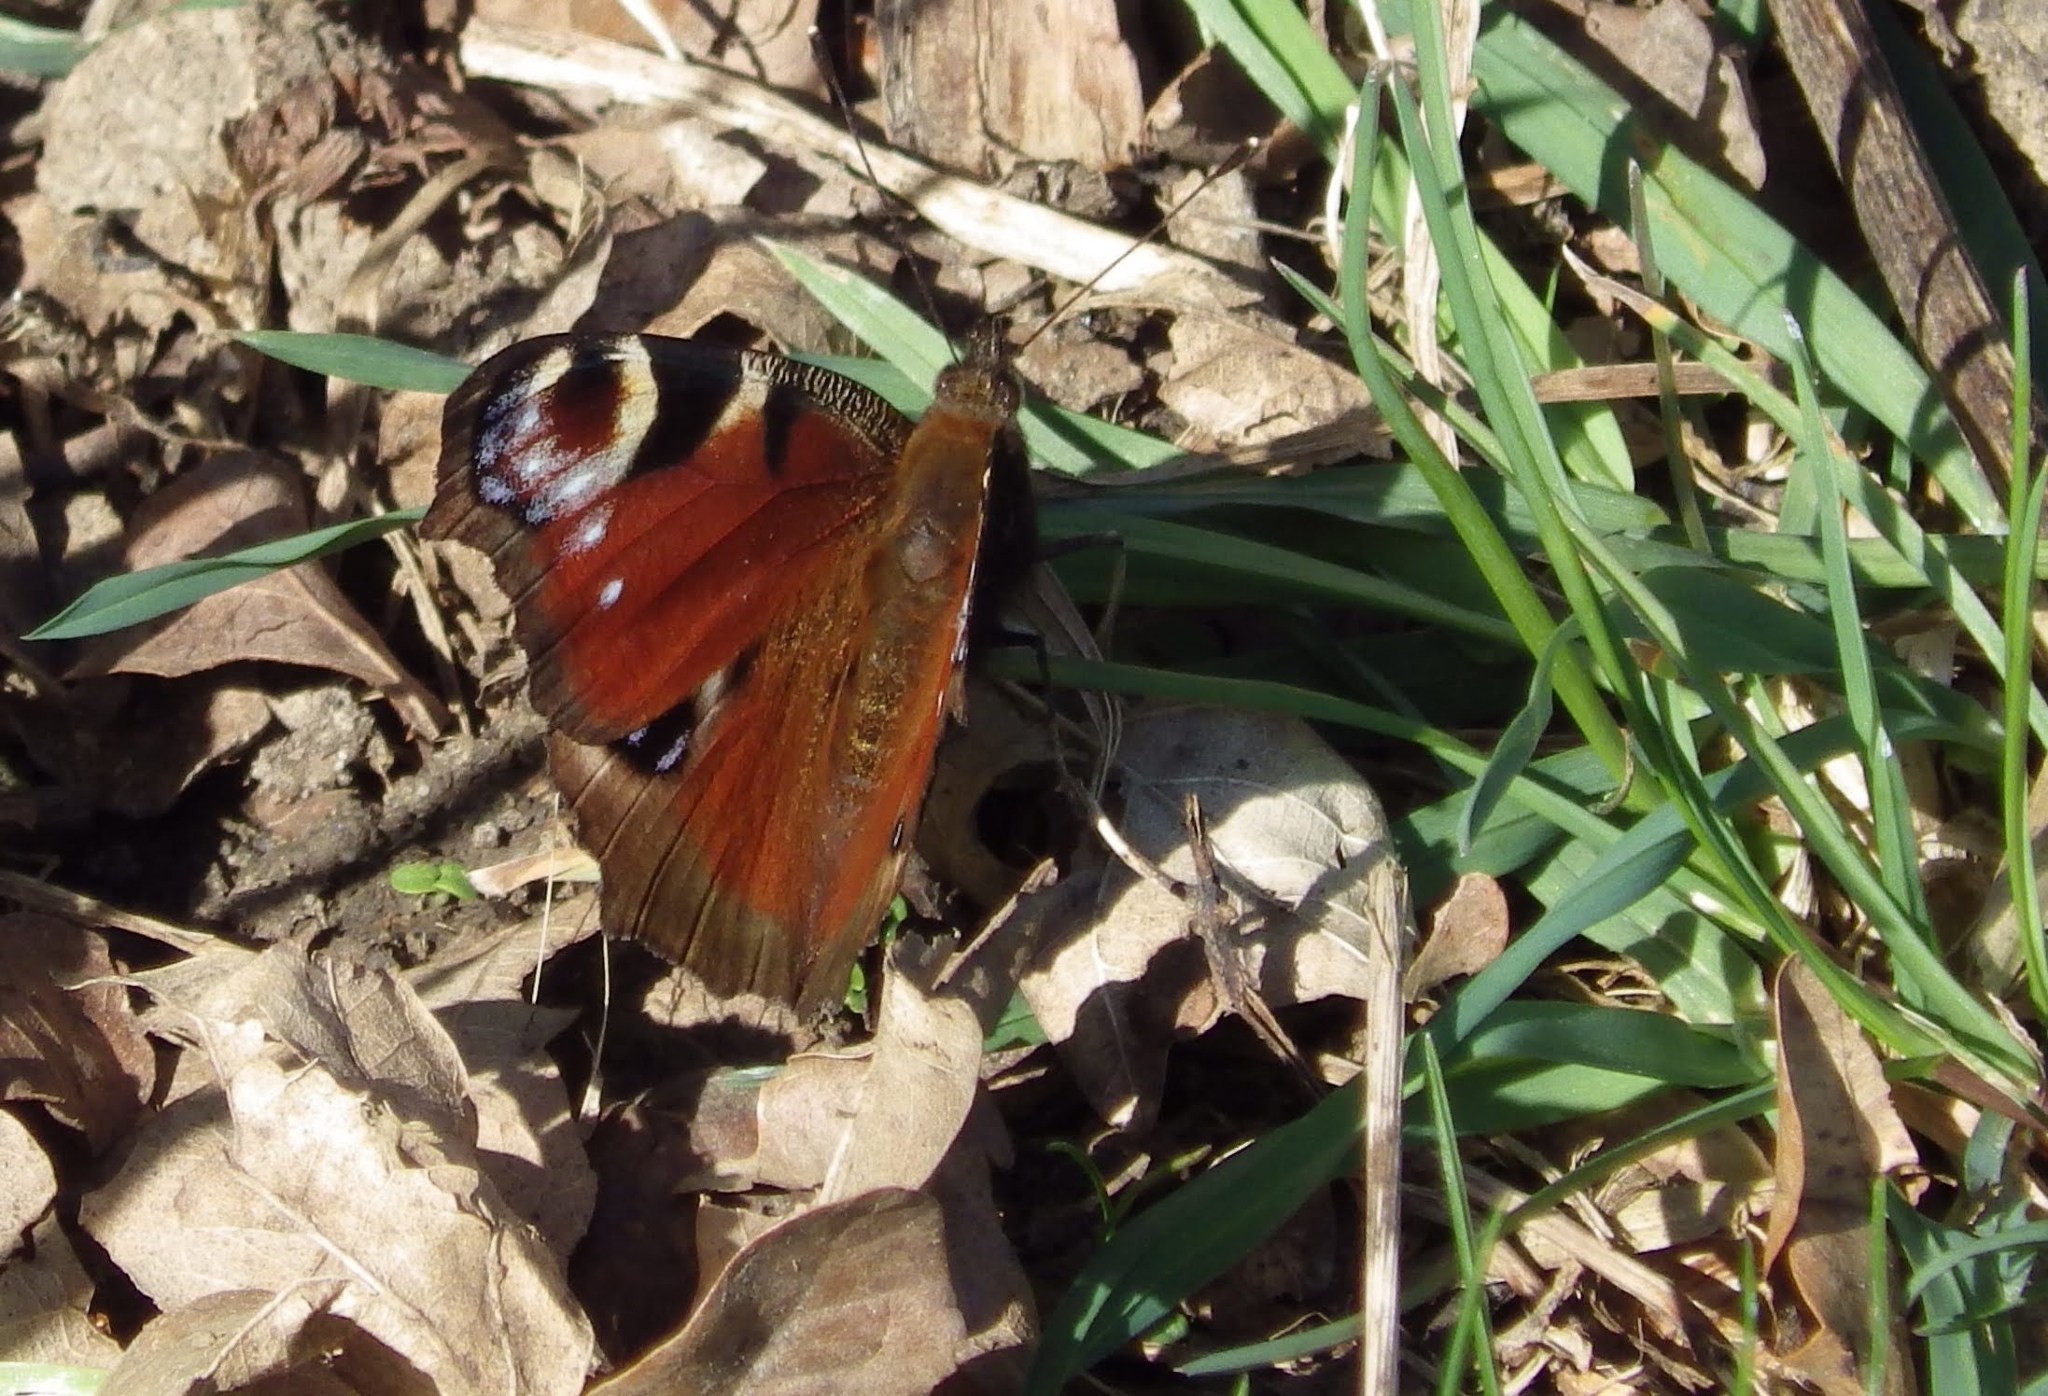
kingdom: Animalia
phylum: Arthropoda
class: Insecta
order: Lepidoptera
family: Nymphalidae
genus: Aglais
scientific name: Aglais io
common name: Peacock
